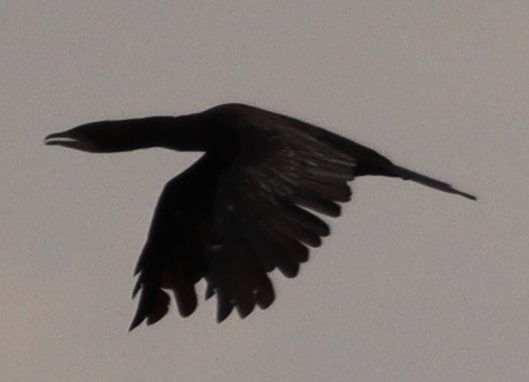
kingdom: Animalia
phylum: Chordata
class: Aves
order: Suliformes
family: Phalacrocoracidae
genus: Phalacrocorax
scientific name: Phalacrocorax carbo
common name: Great cormorant
